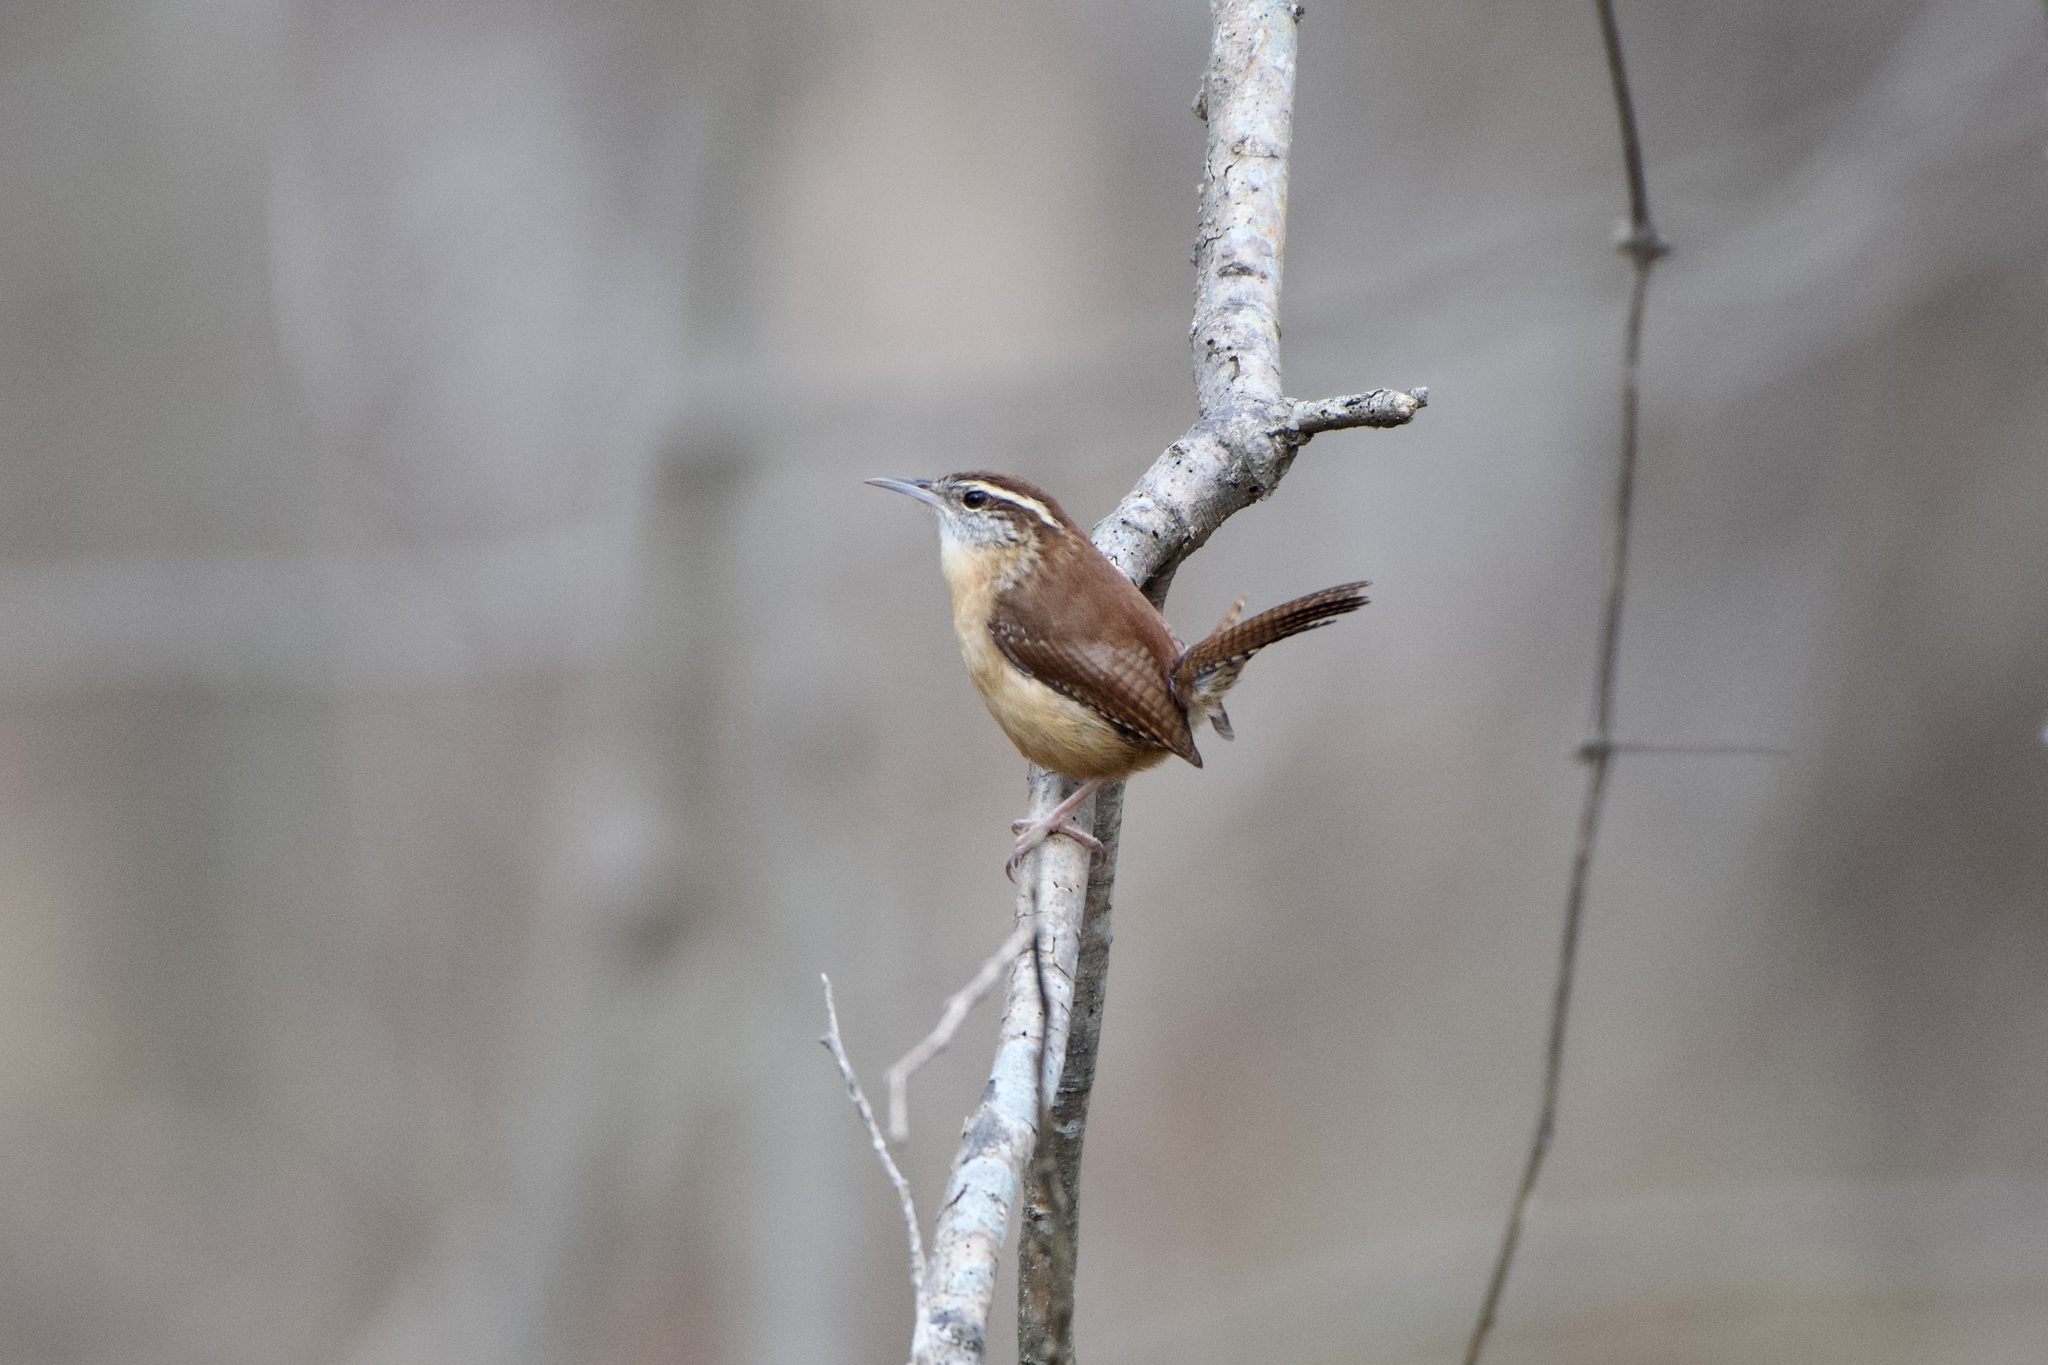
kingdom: Animalia
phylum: Chordata
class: Aves
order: Passeriformes
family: Troglodytidae
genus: Thryothorus
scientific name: Thryothorus ludovicianus
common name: Carolina wren
